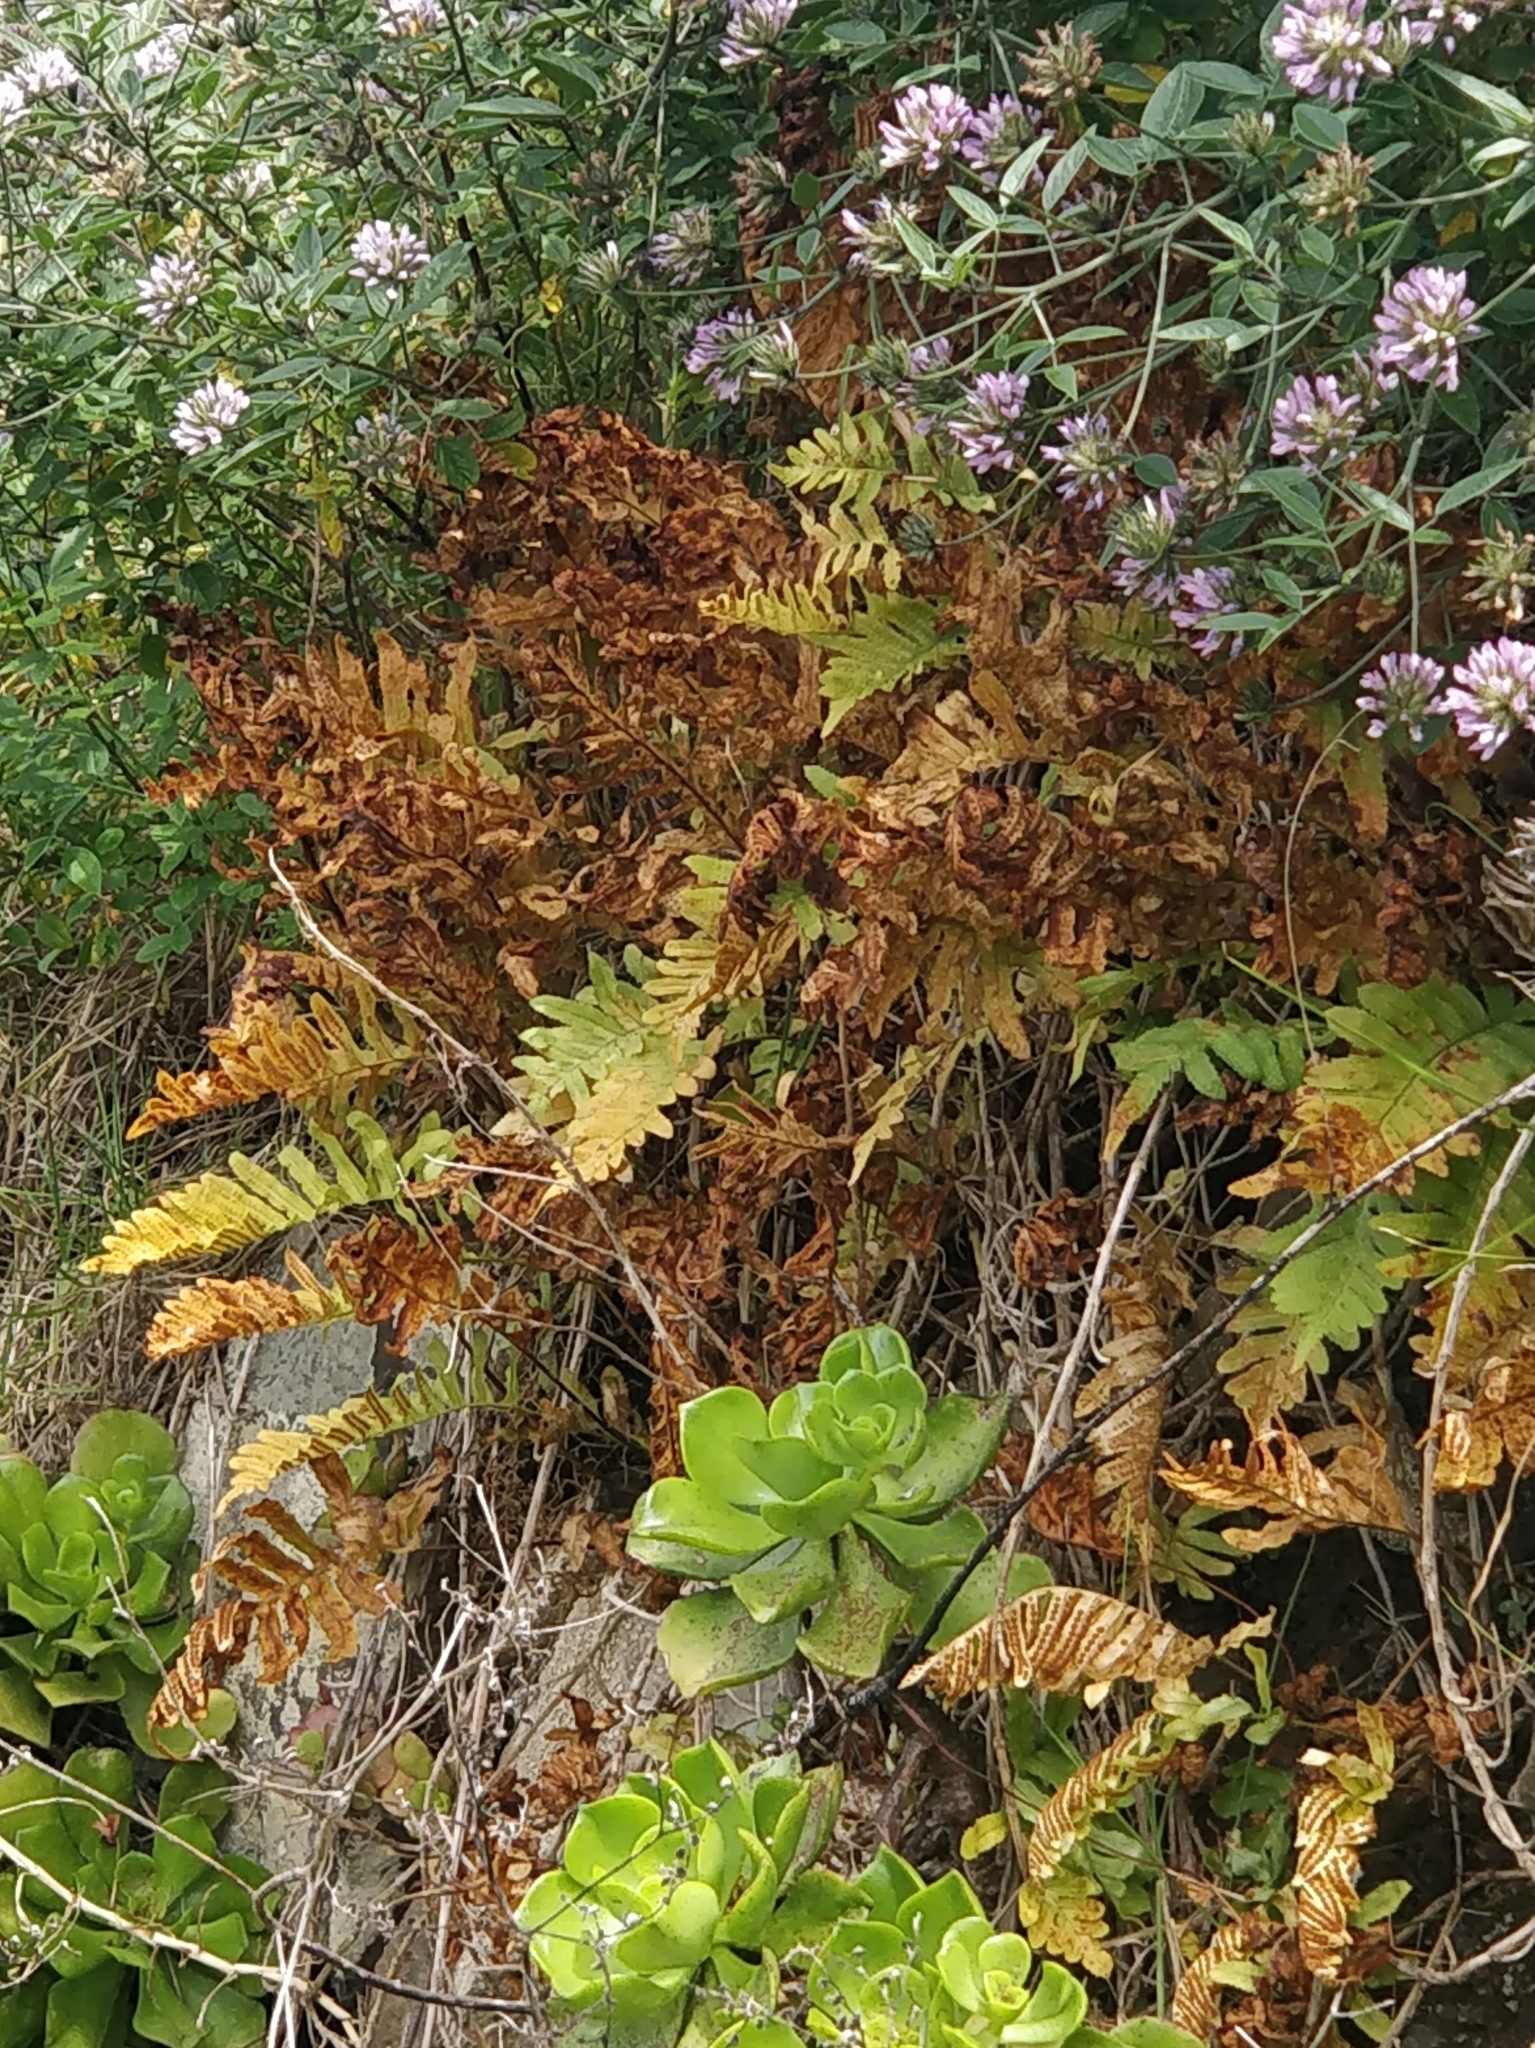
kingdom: Plantae
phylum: Tracheophyta
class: Polypodiopsida
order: Polypodiales
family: Polypodiaceae
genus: Polypodium
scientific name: Polypodium macaronesicum
